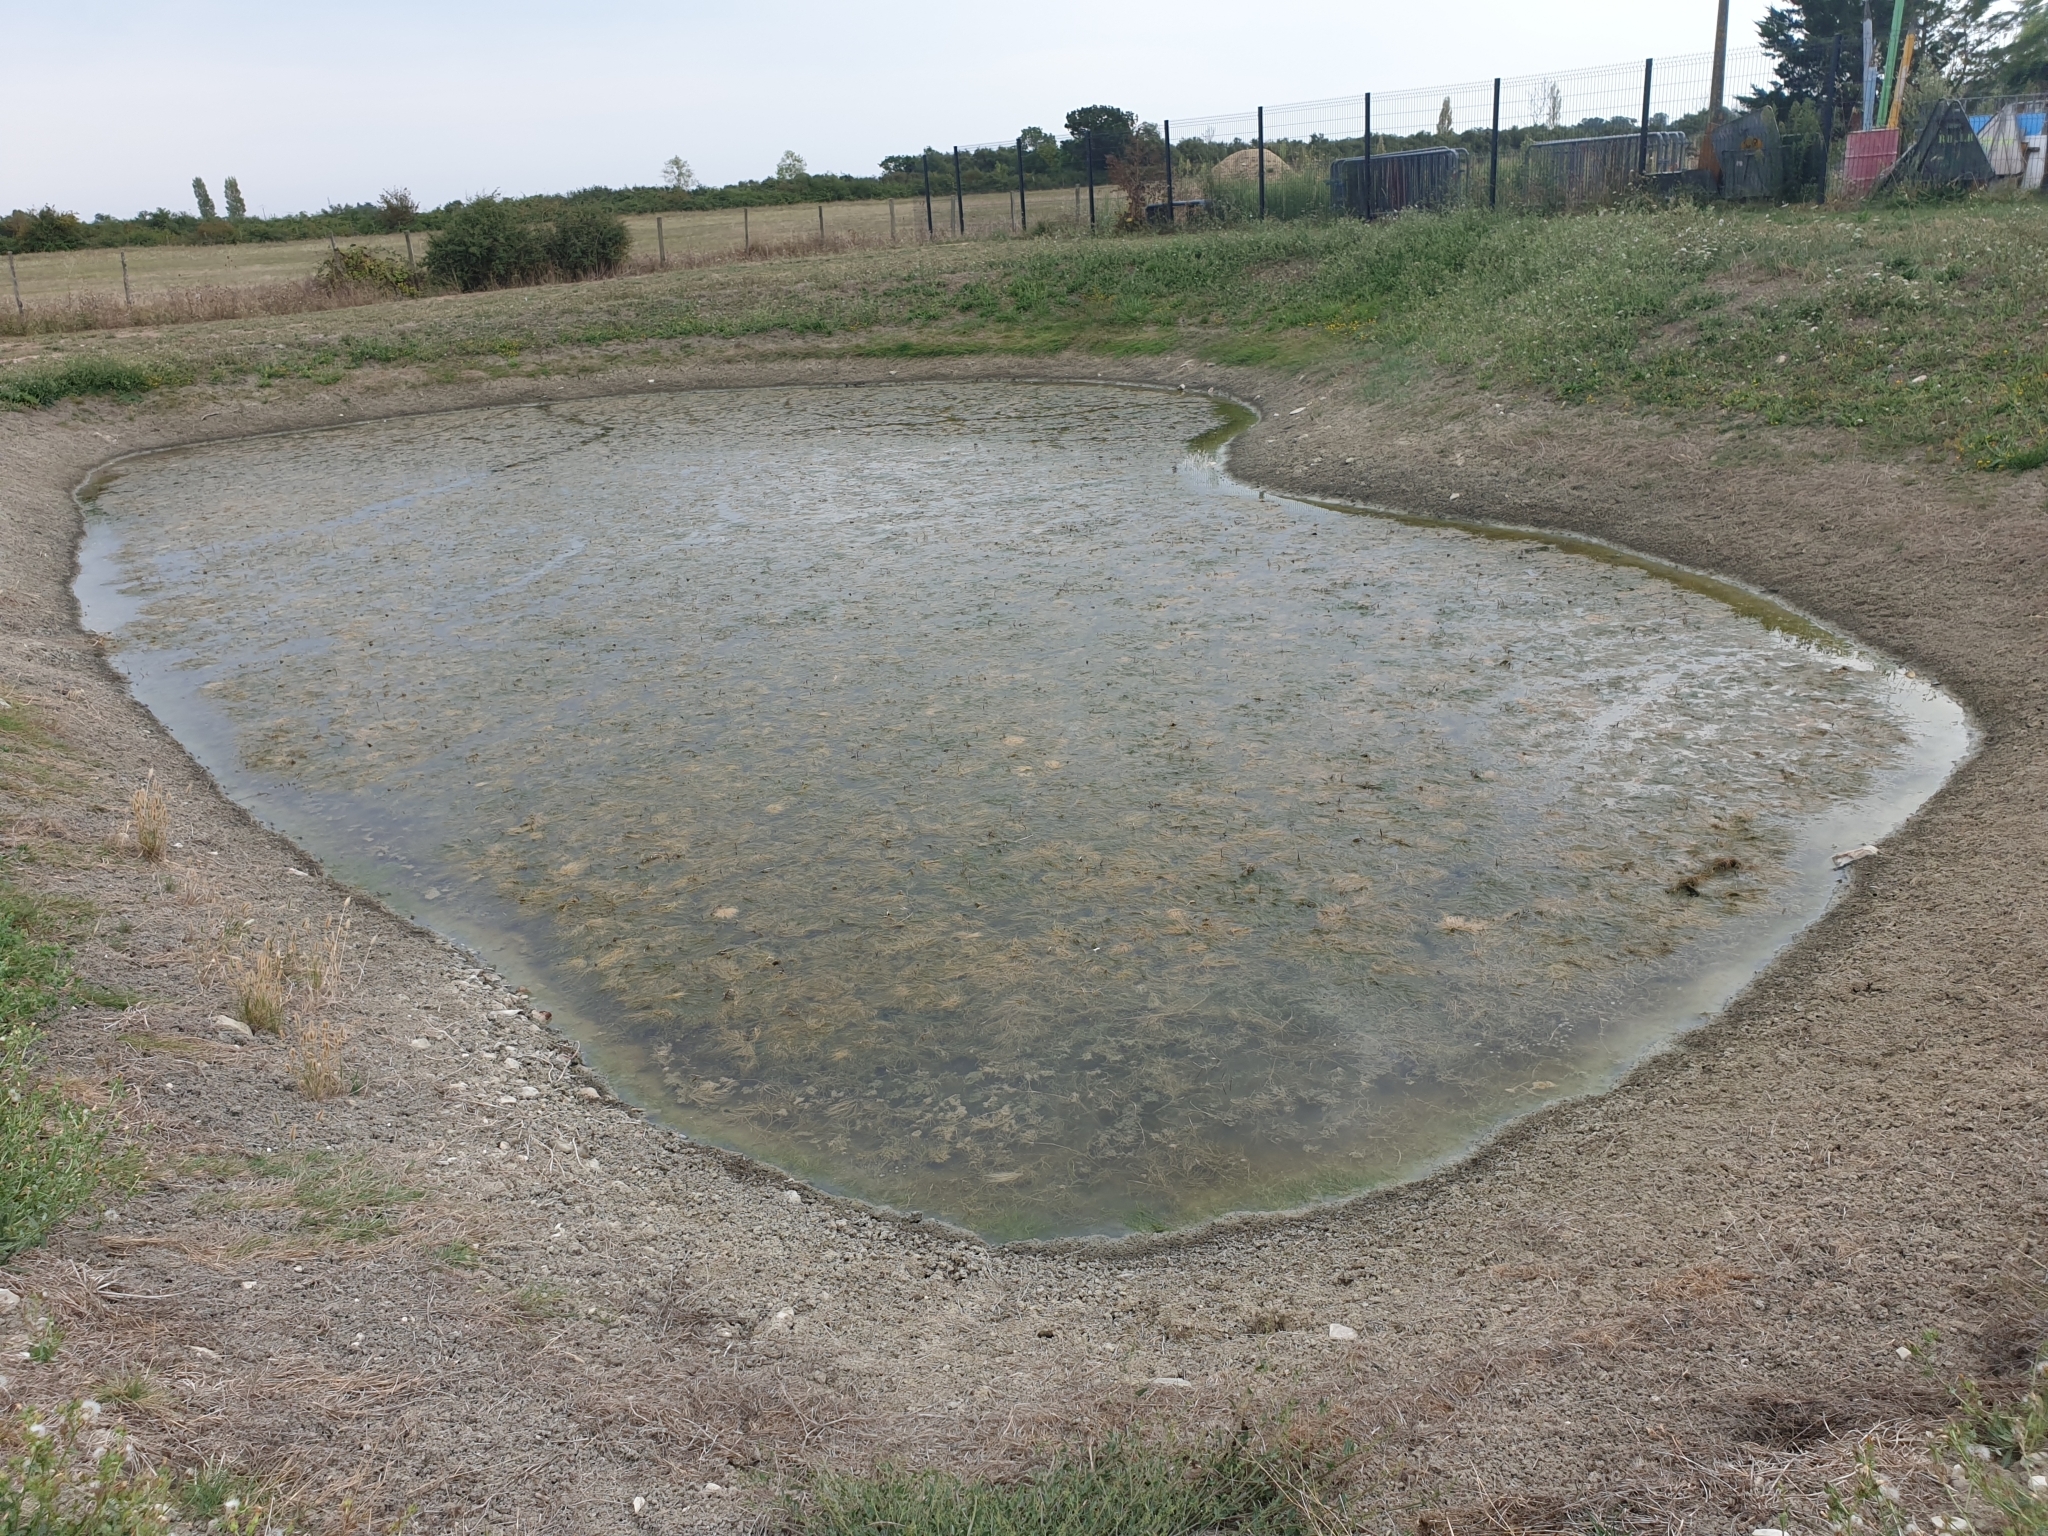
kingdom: Plantae
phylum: Tracheophyta
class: Liliopsida
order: Alismatales
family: Potamogetonaceae
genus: Zannichellia
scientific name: Zannichellia palustris
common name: Horned pondweed
